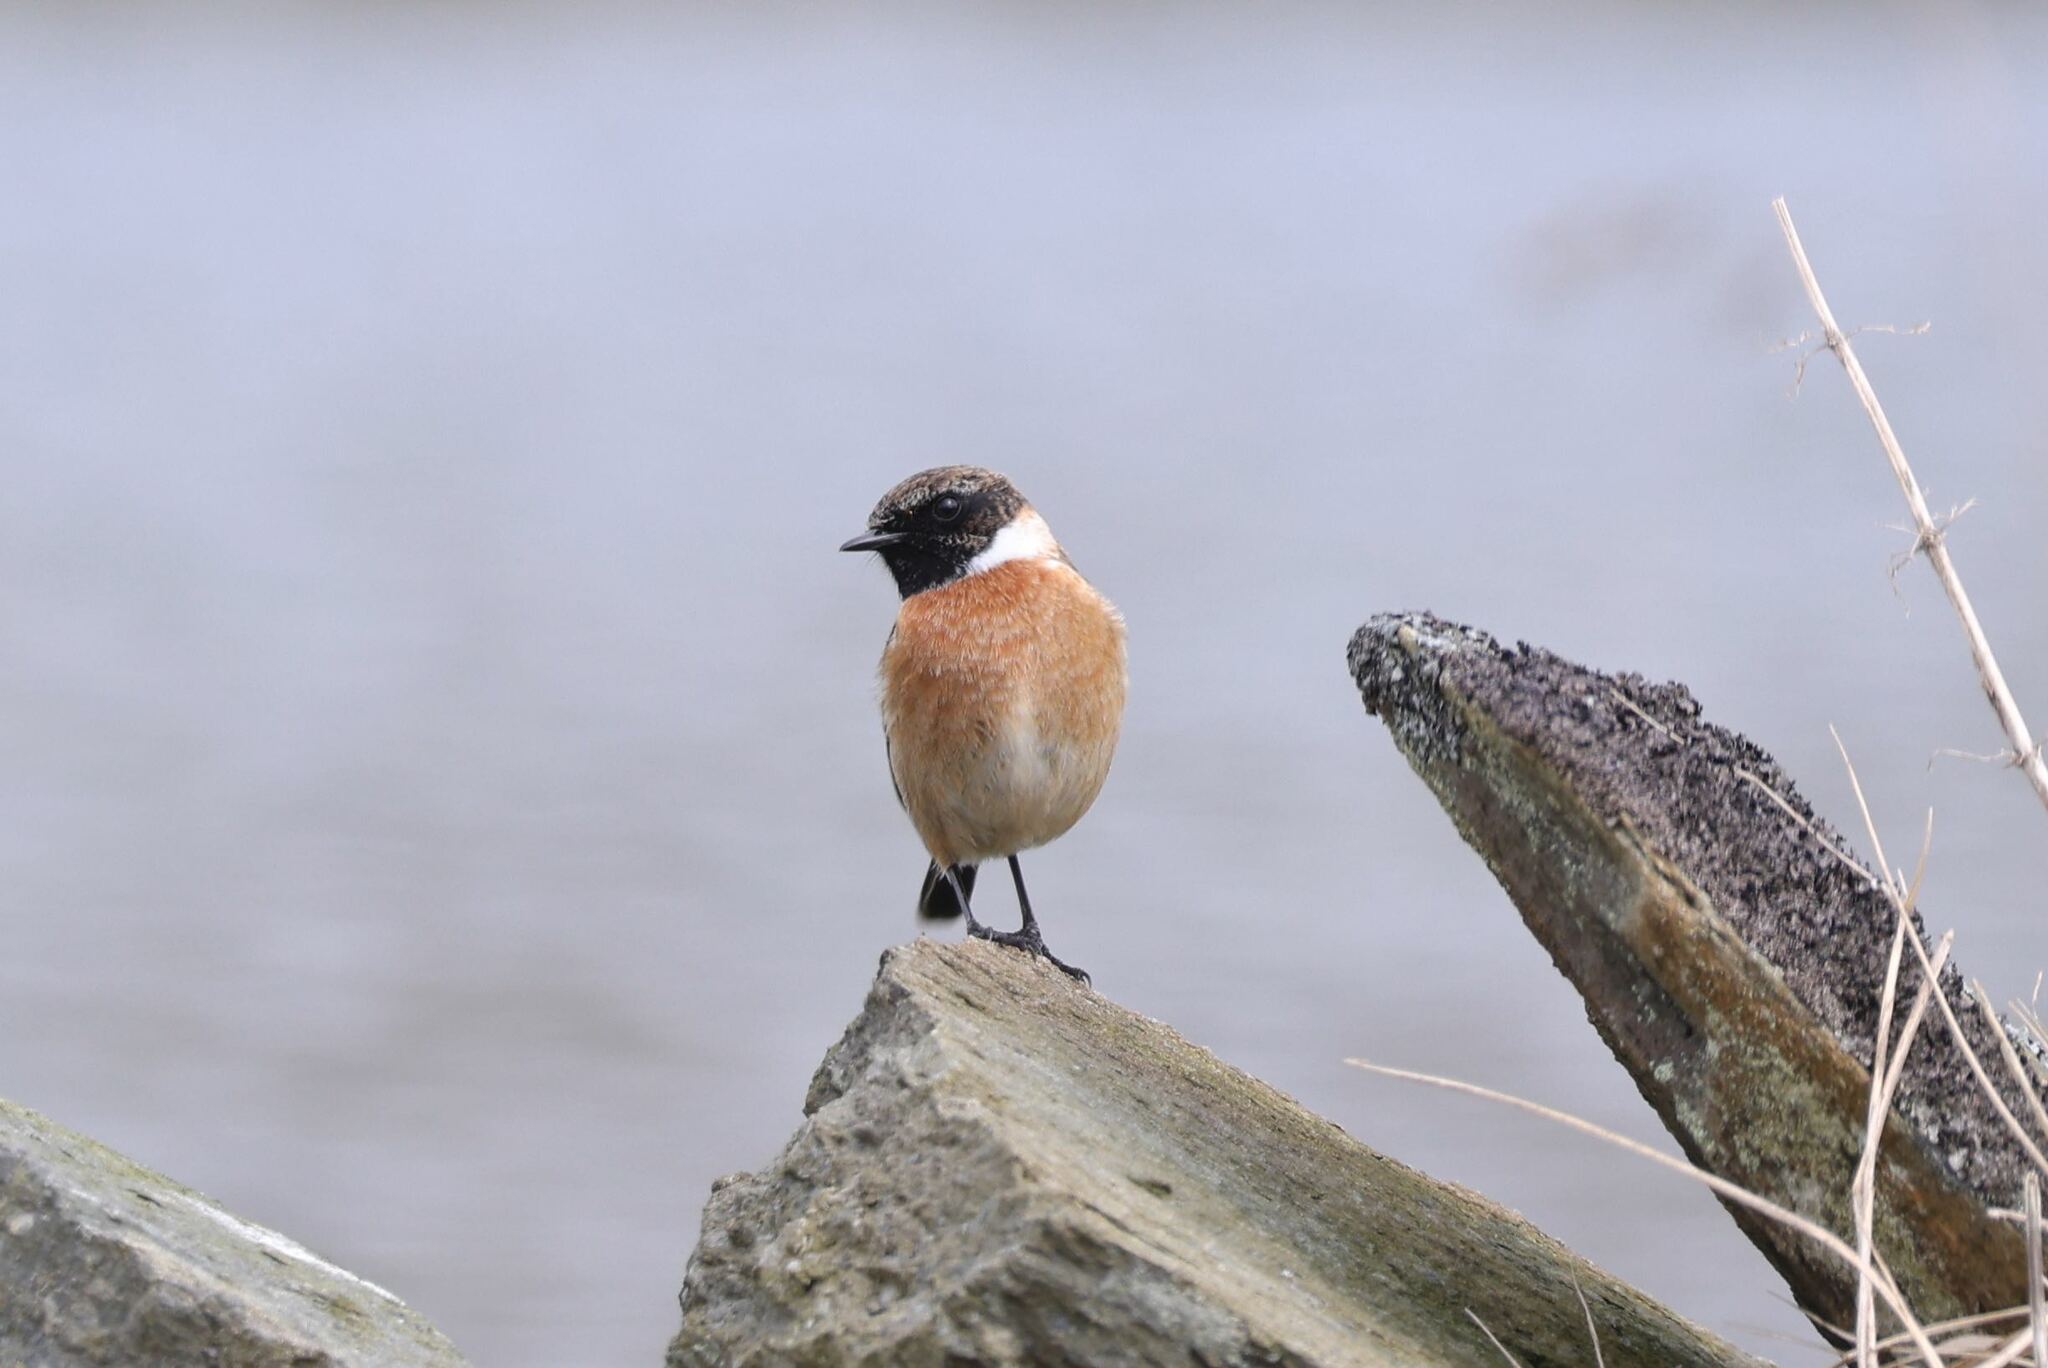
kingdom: Animalia
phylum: Chordata
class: Aves
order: Passeriformes
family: Muscicapidae
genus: Saxicola
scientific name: Saxicola rubicola
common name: European stonechat
